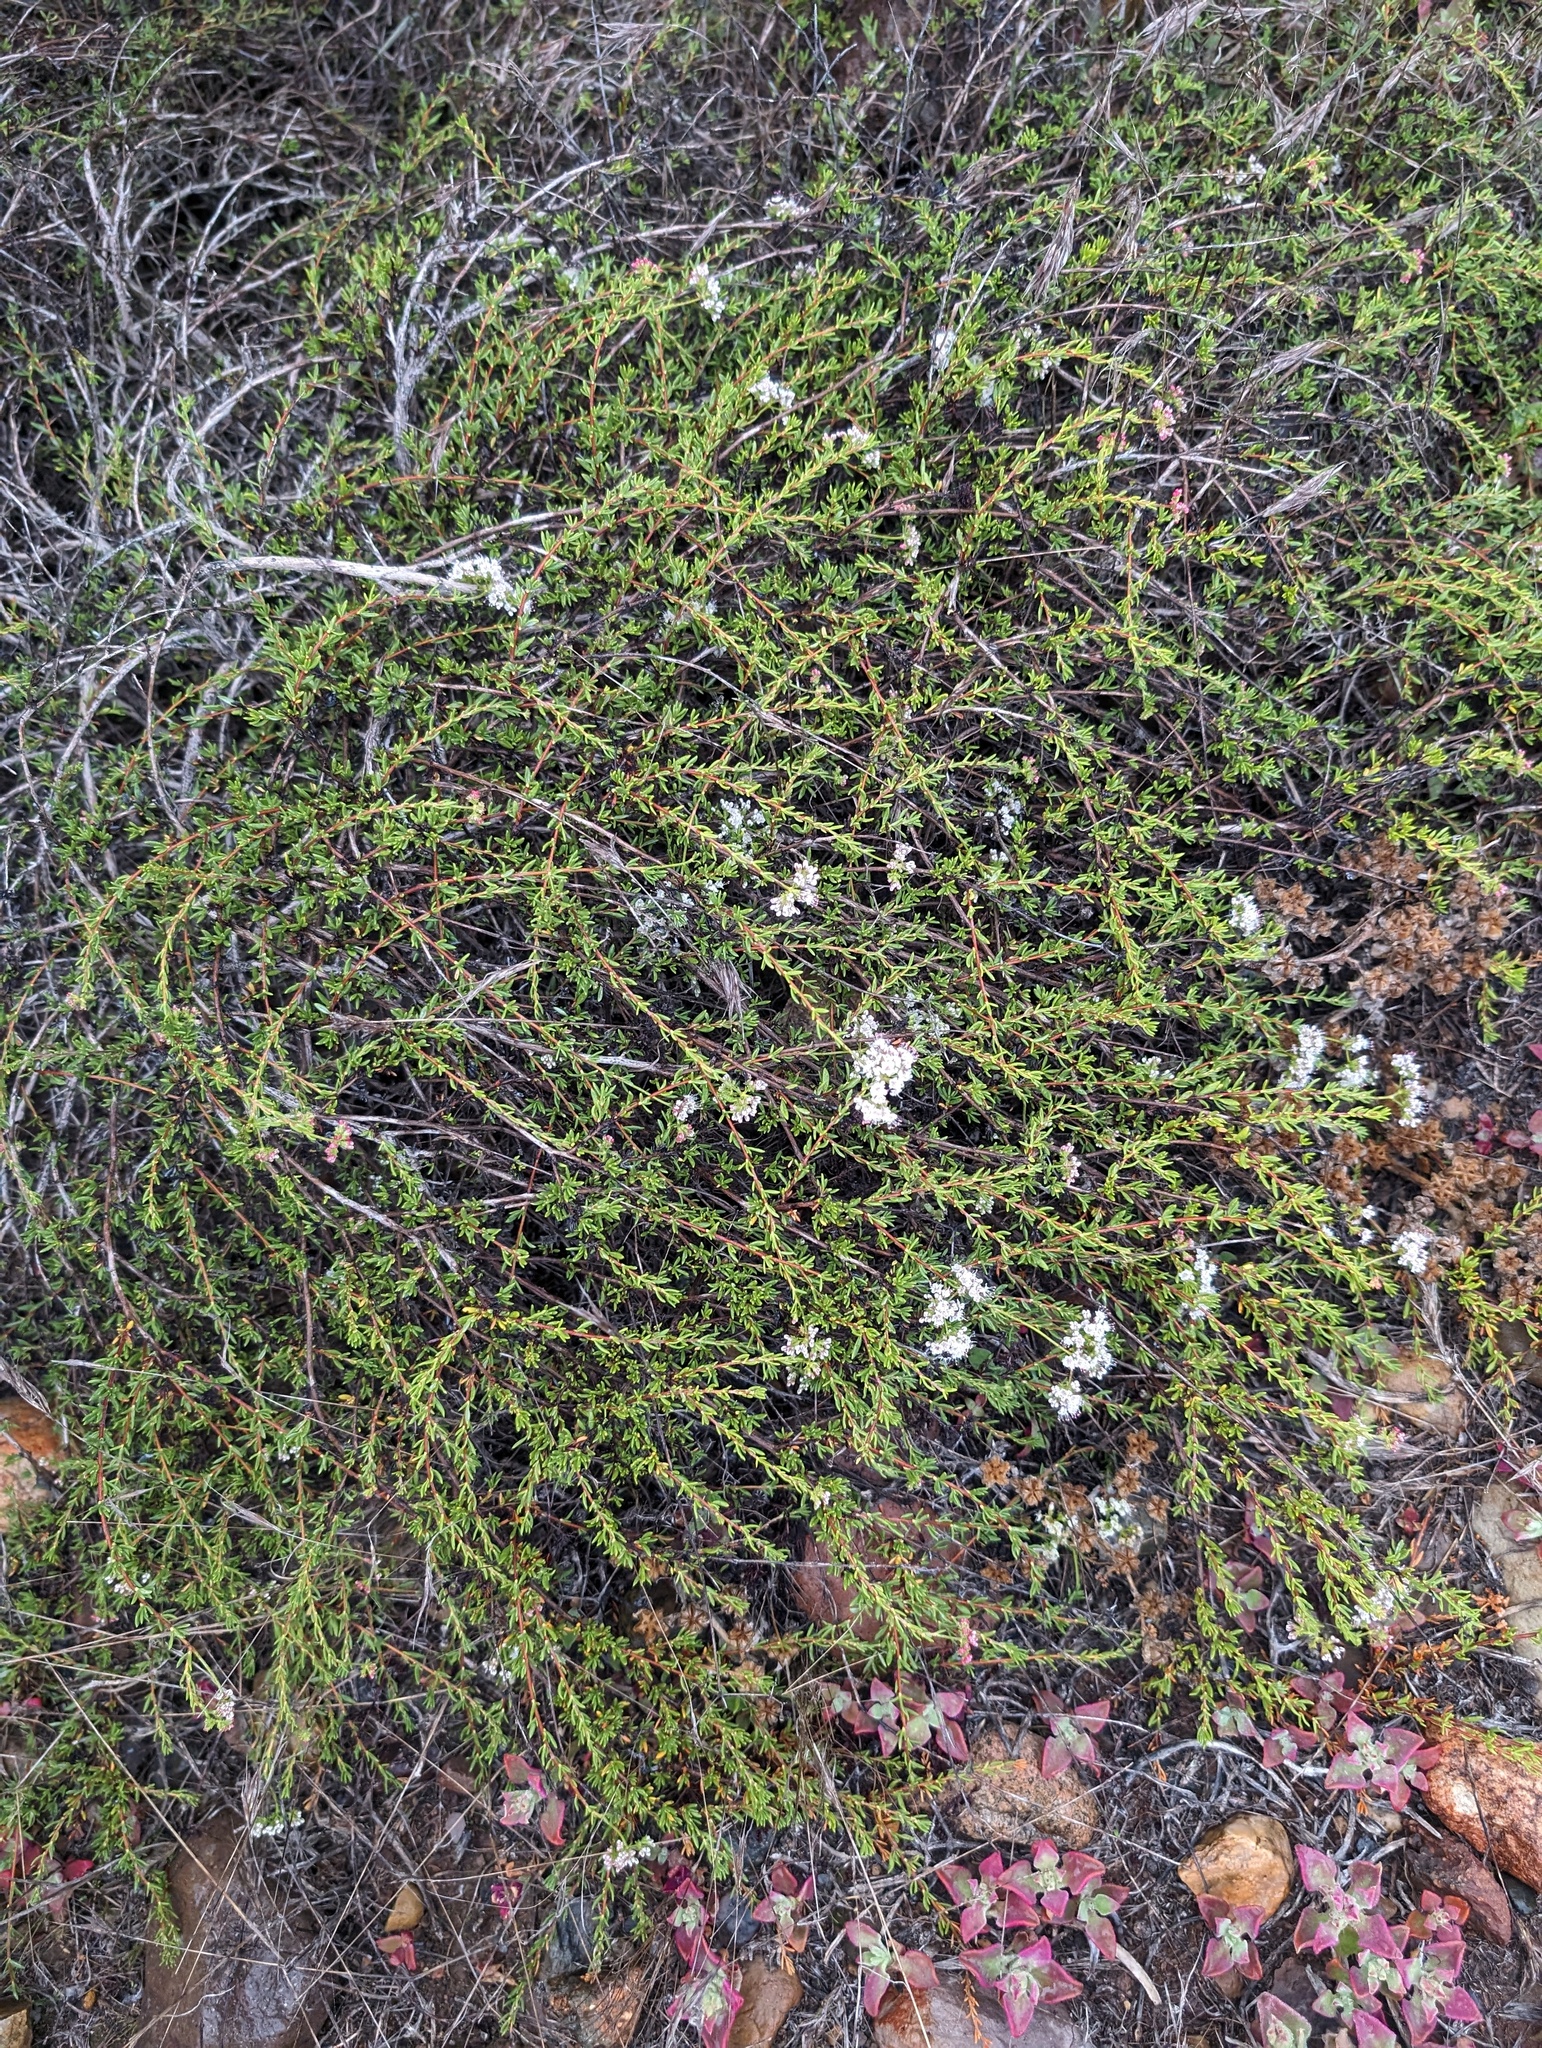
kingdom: Plantae
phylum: Tracheophyta
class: Magnoliopsida
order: Caryophyllales
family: Polygonaceae
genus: Eriogonum
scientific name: Eriogonum fasciculatum
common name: California wild buckwheat
